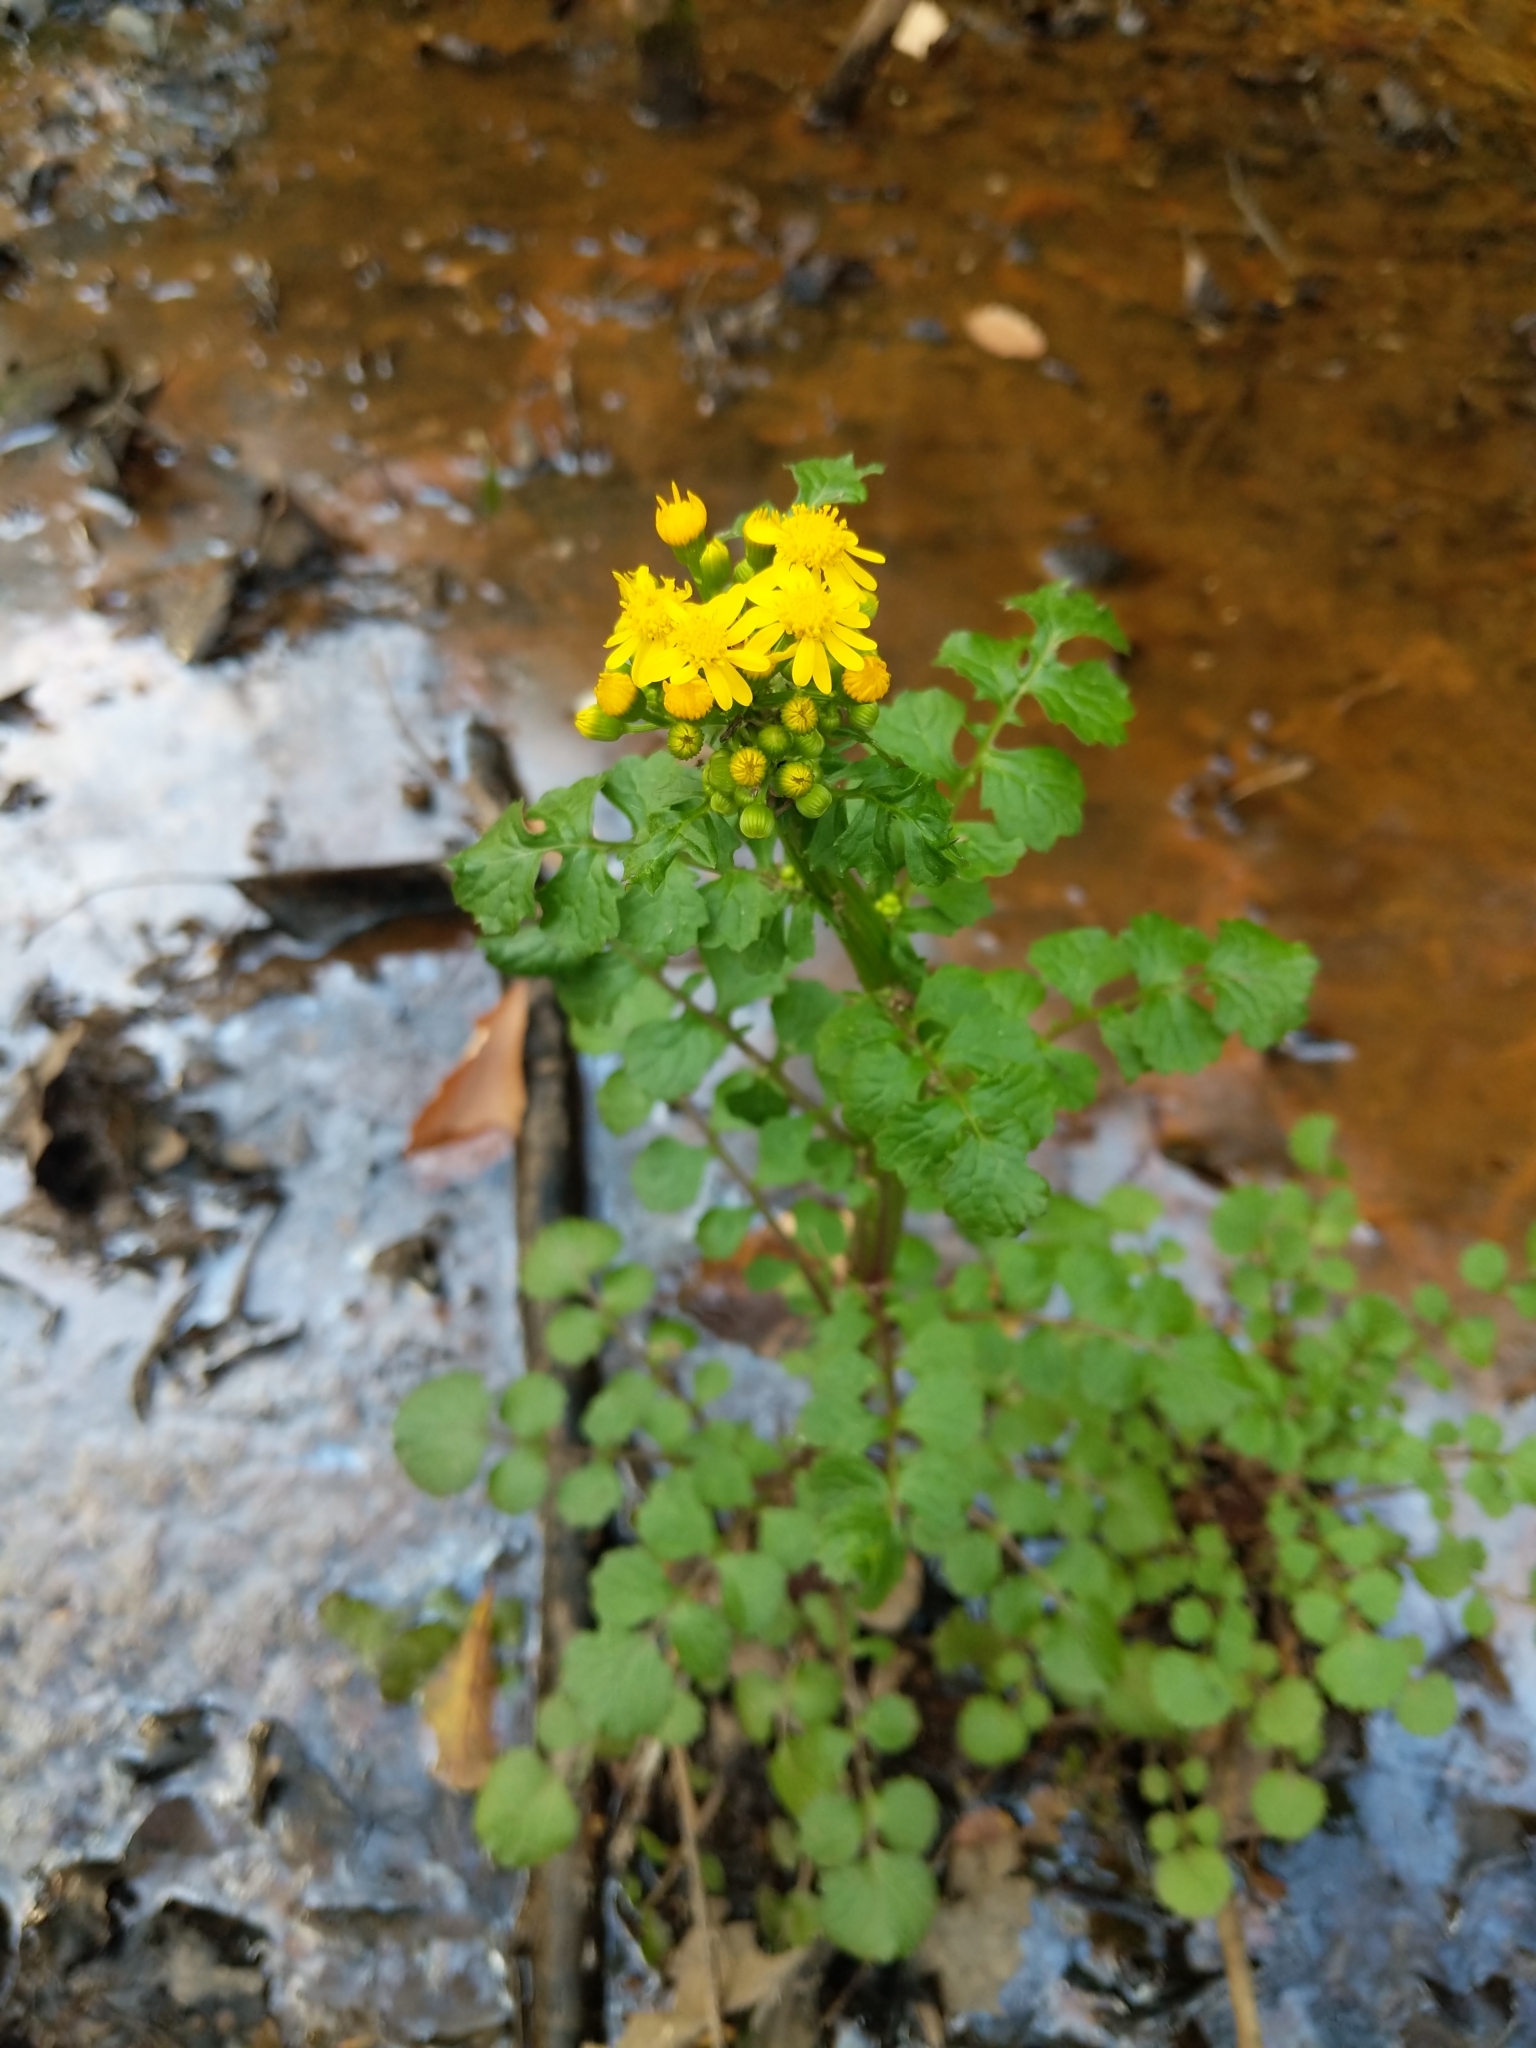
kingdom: Plantae
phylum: Tracheophyta
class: Magnoliopsida
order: Asterales
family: Asteraceae
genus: Packera
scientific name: Packera glabella
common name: Butterweed
